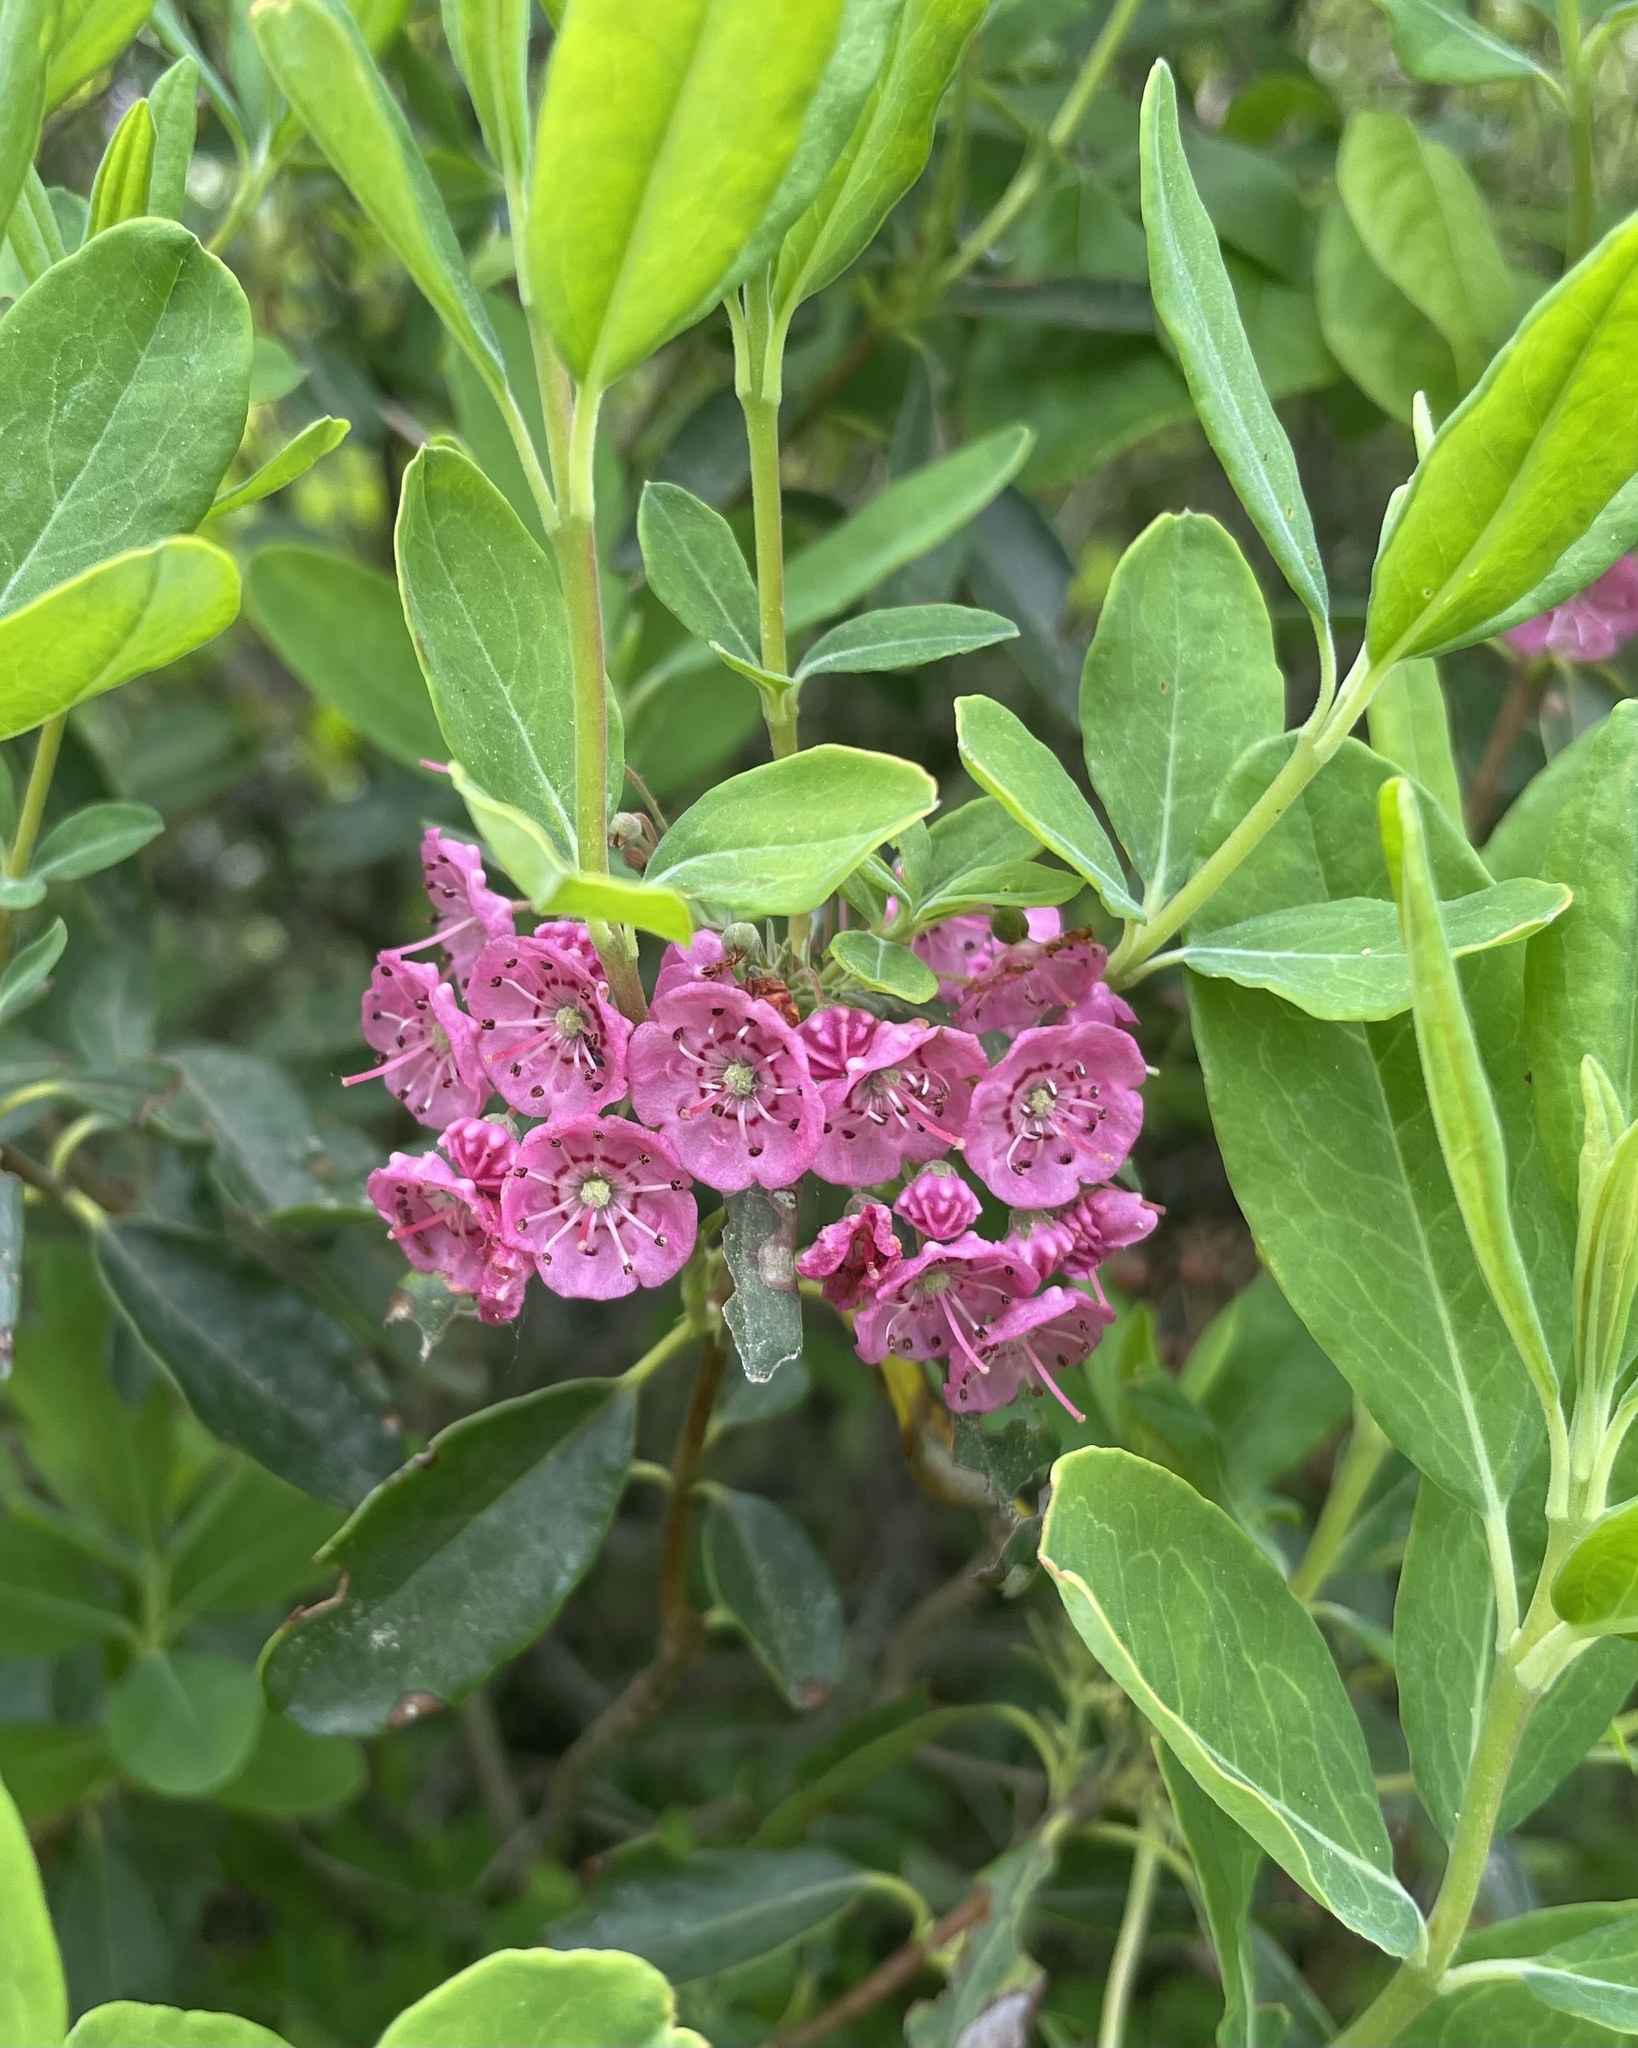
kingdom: Plantae
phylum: Tracheophyta
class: Magnoliopsida
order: Ericales
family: Ericaceae
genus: Kalmia
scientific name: Kalmia angustifolia
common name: Sheep-laurel
